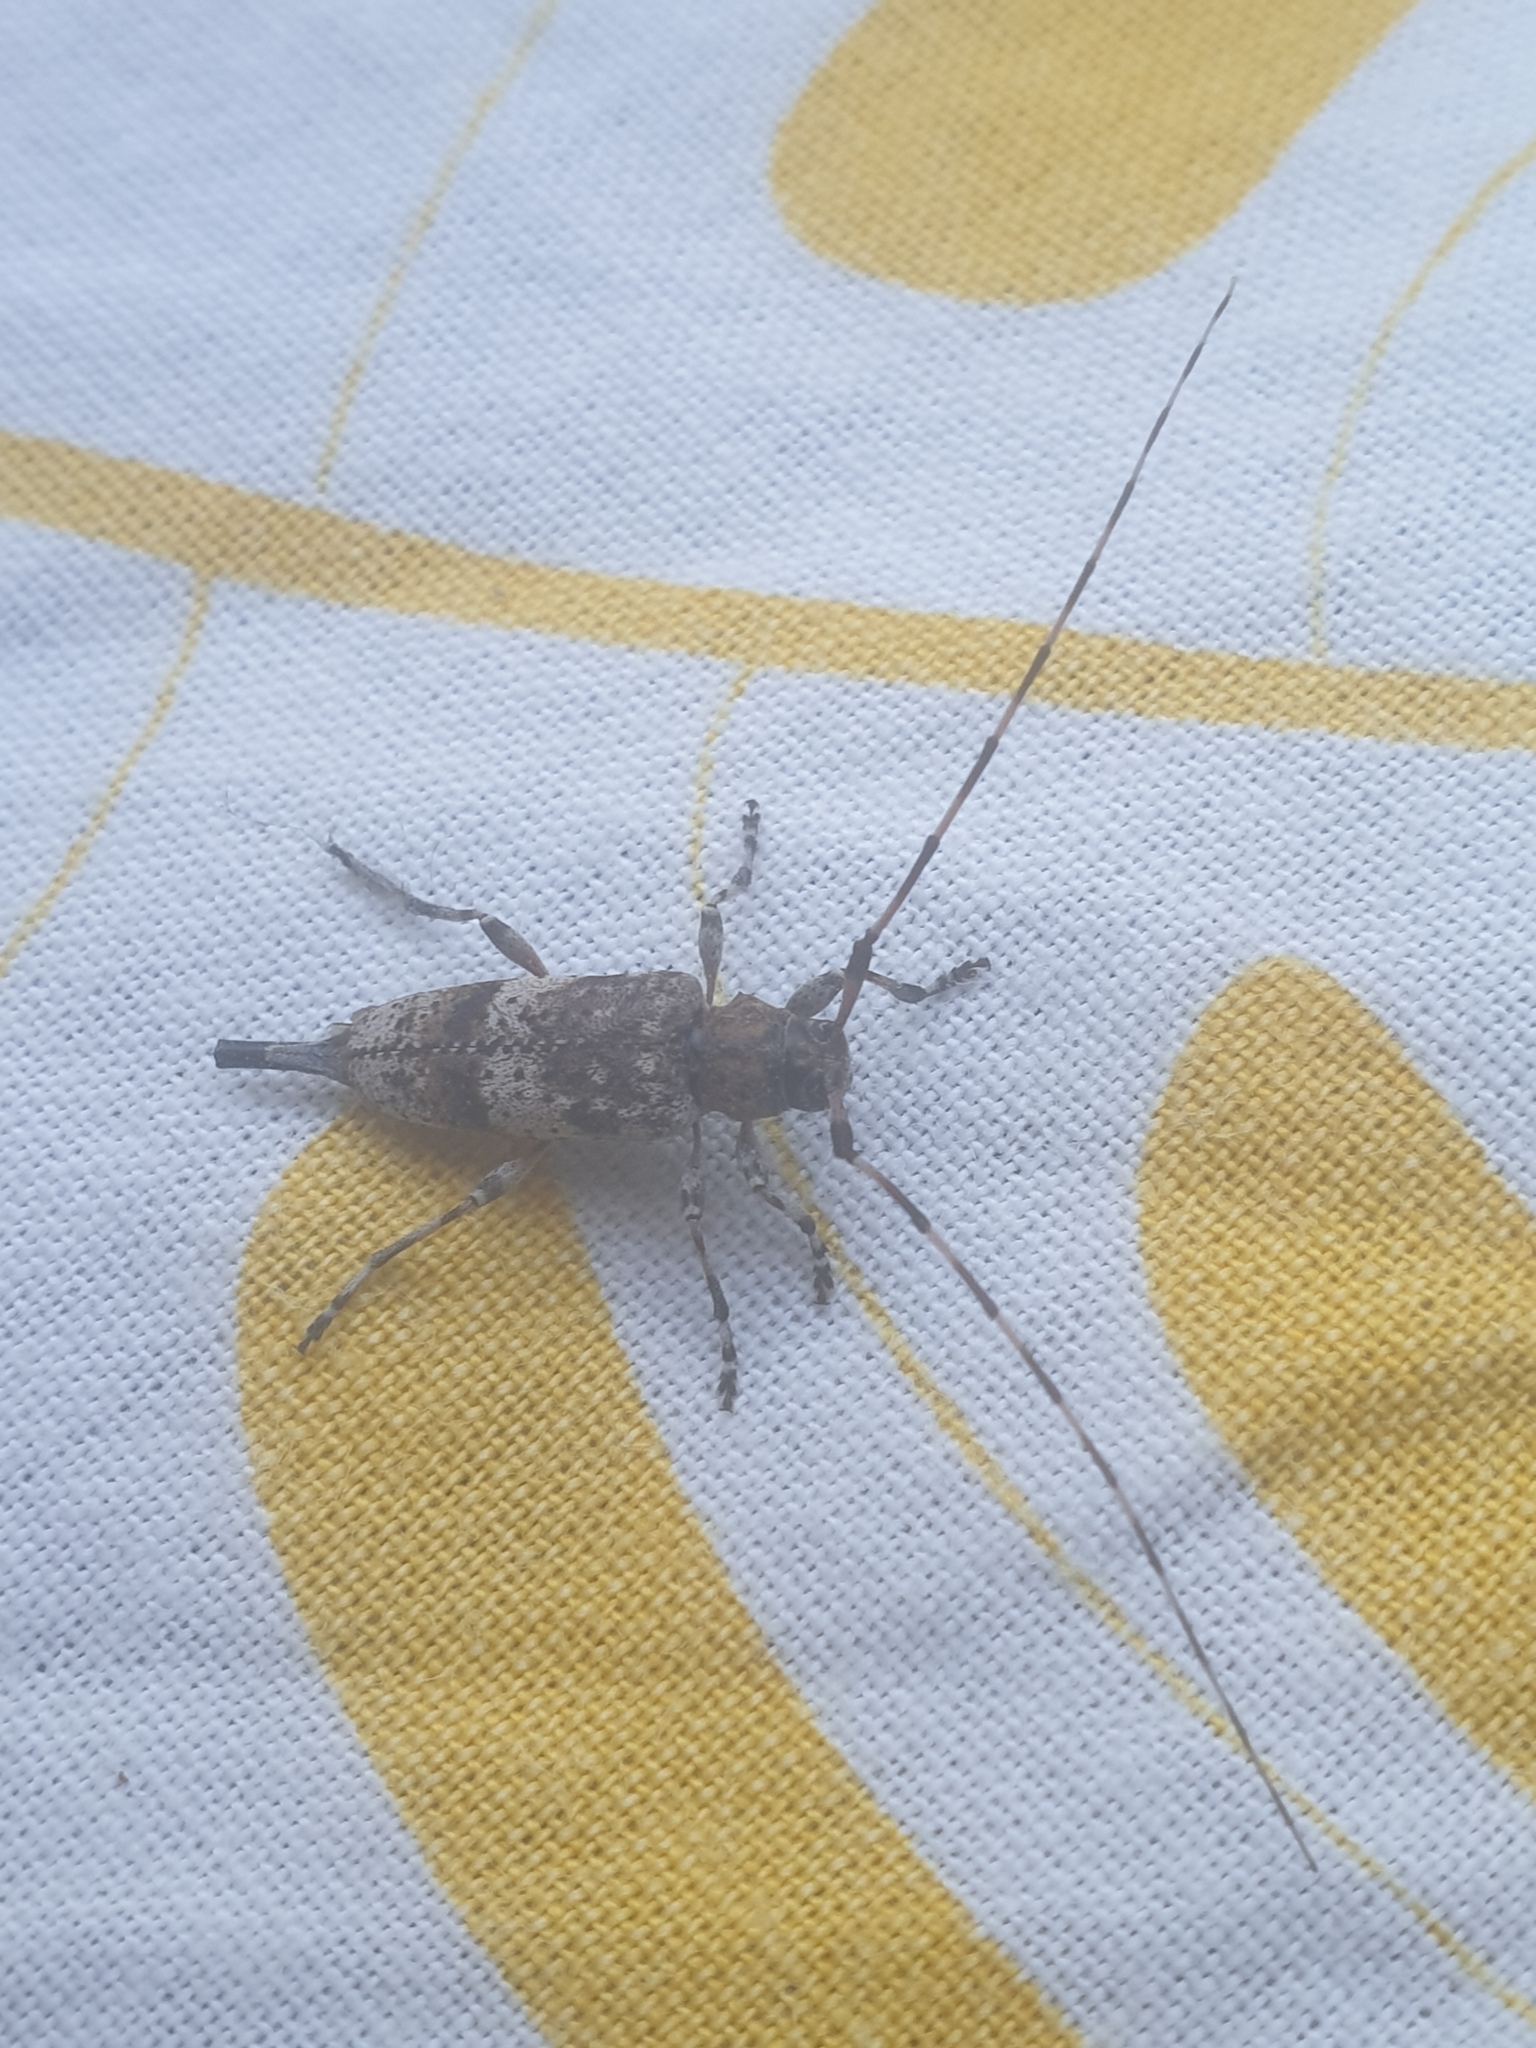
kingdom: Animalia
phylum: Arthropoda
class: Insecta
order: Coleoptera
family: Cerambycidae
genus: Acanthocinus
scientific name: Acanthocinus griseus
